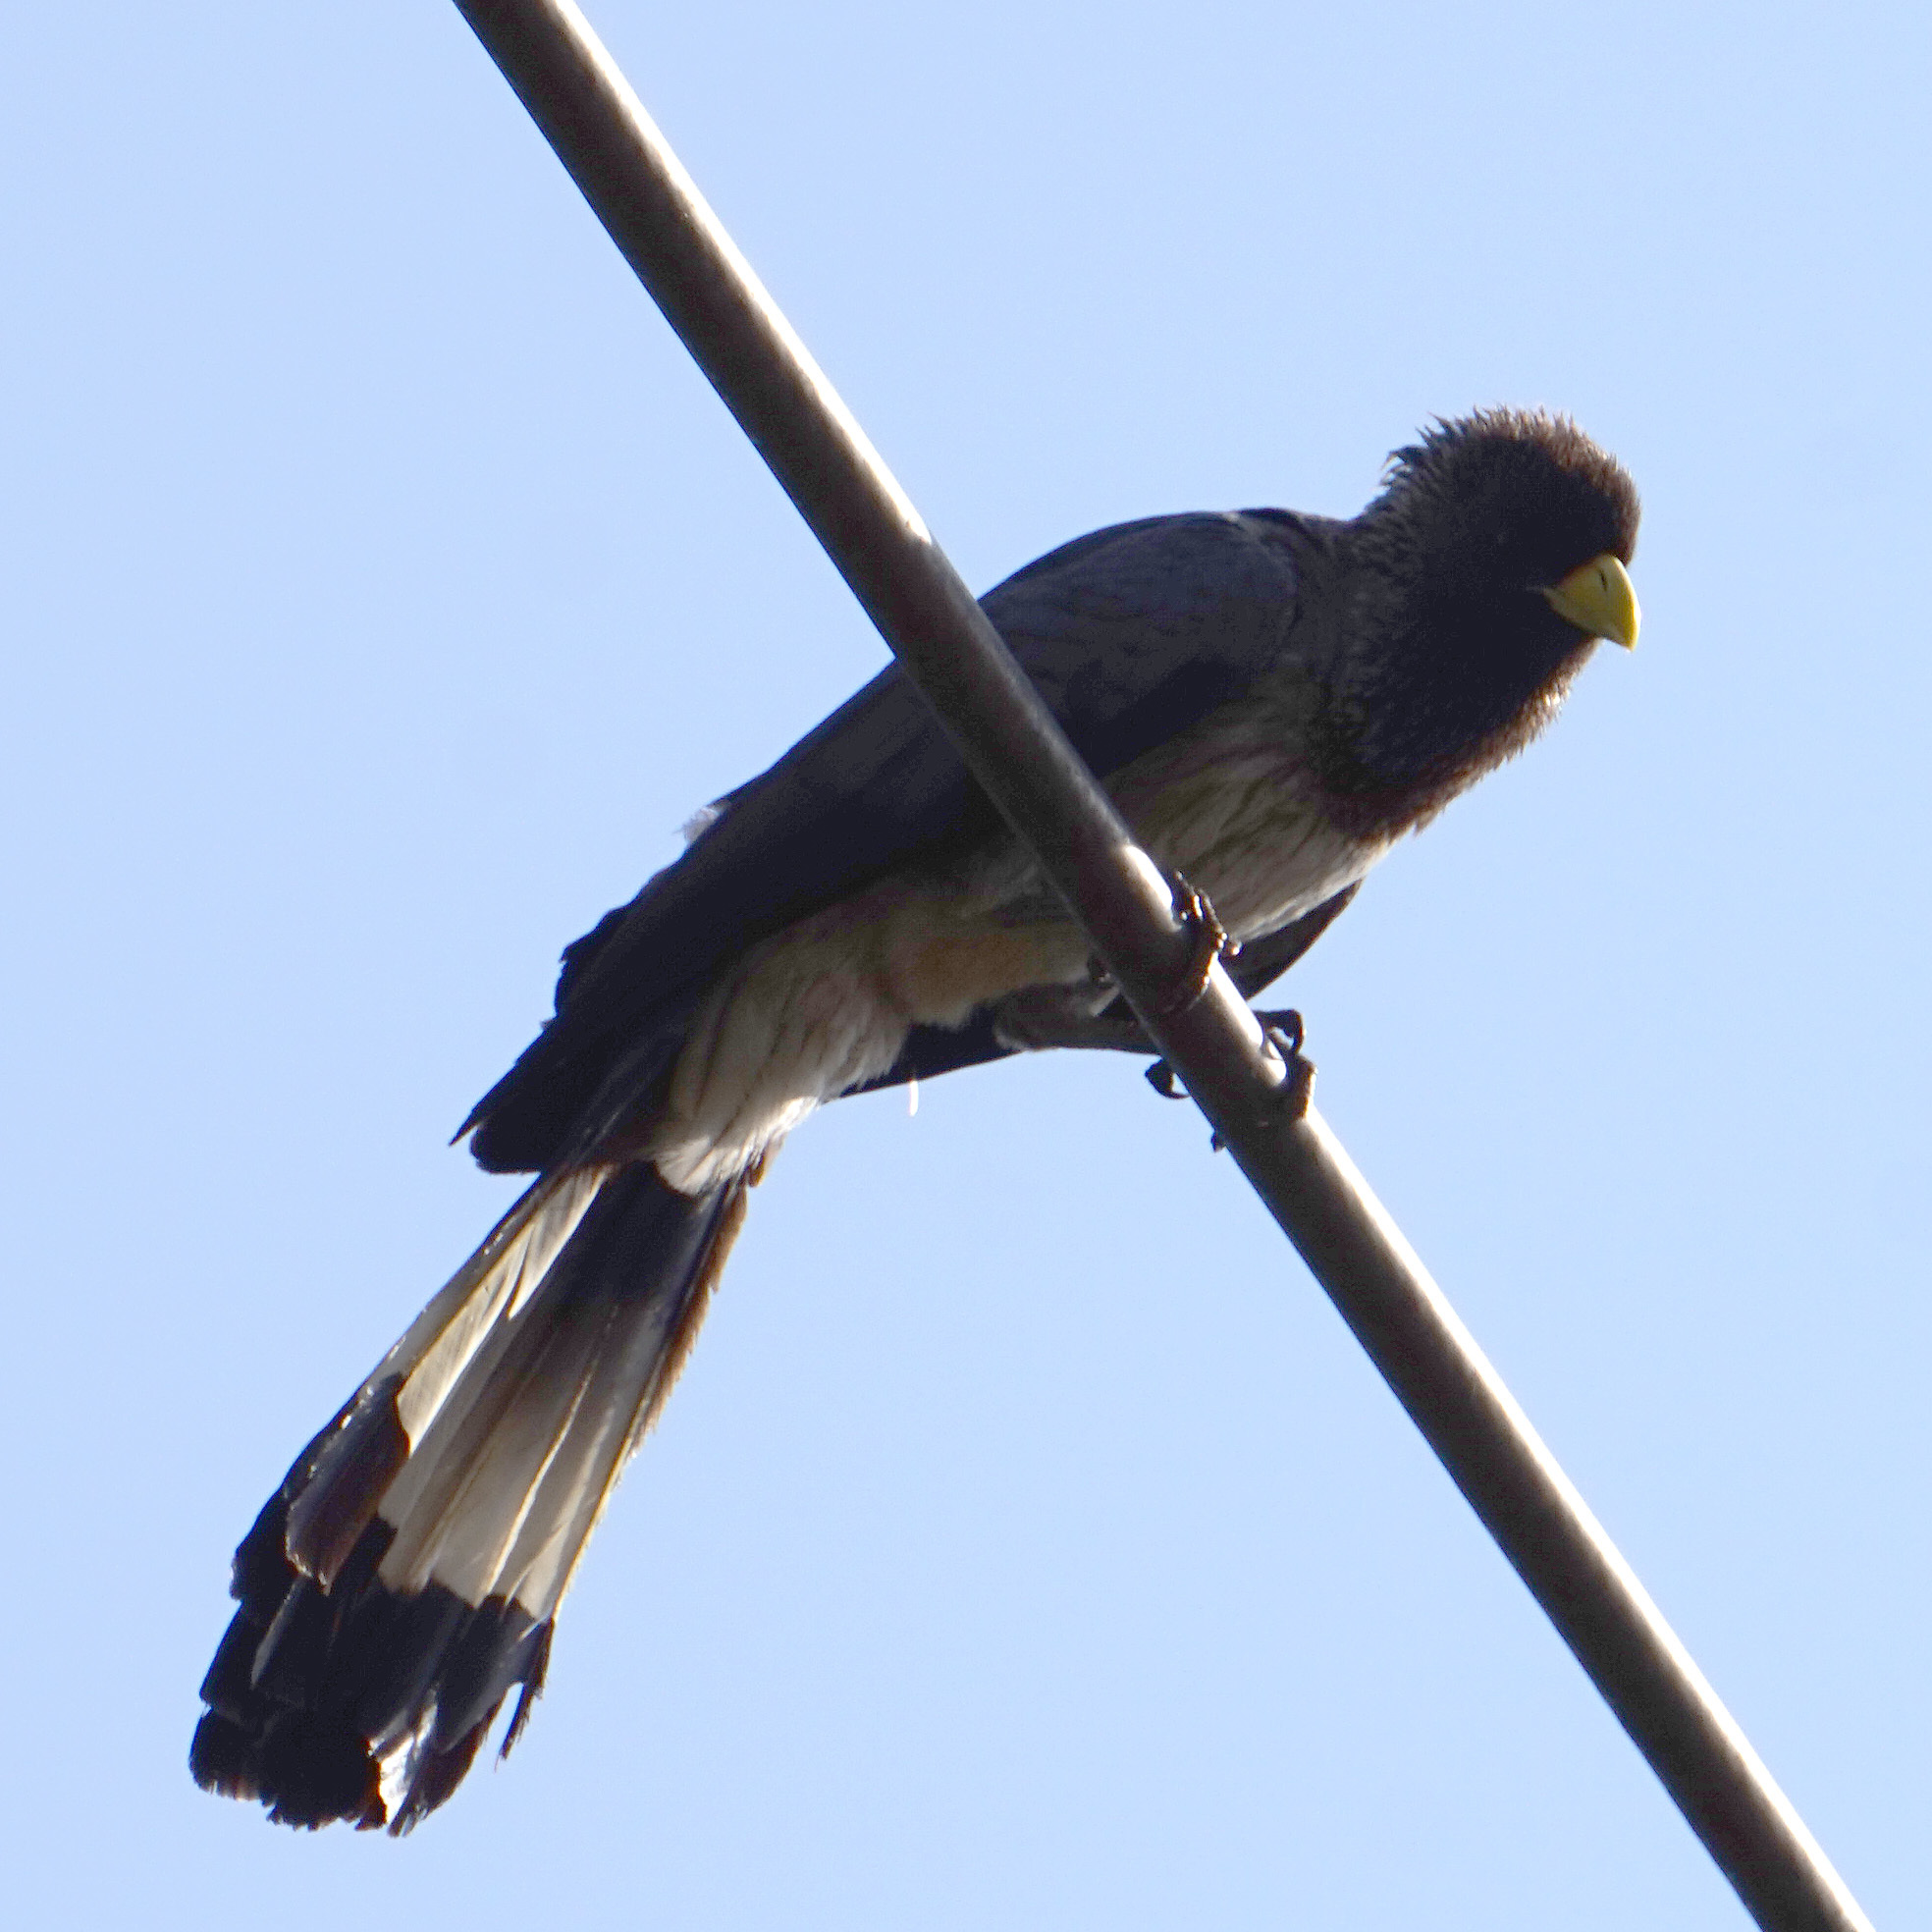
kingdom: Animalia
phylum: Chordata
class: Aves
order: Musophagiformes
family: Musophagidae
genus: Crinifer
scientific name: Crinifer zonurus
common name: Eastern plantain-eater
